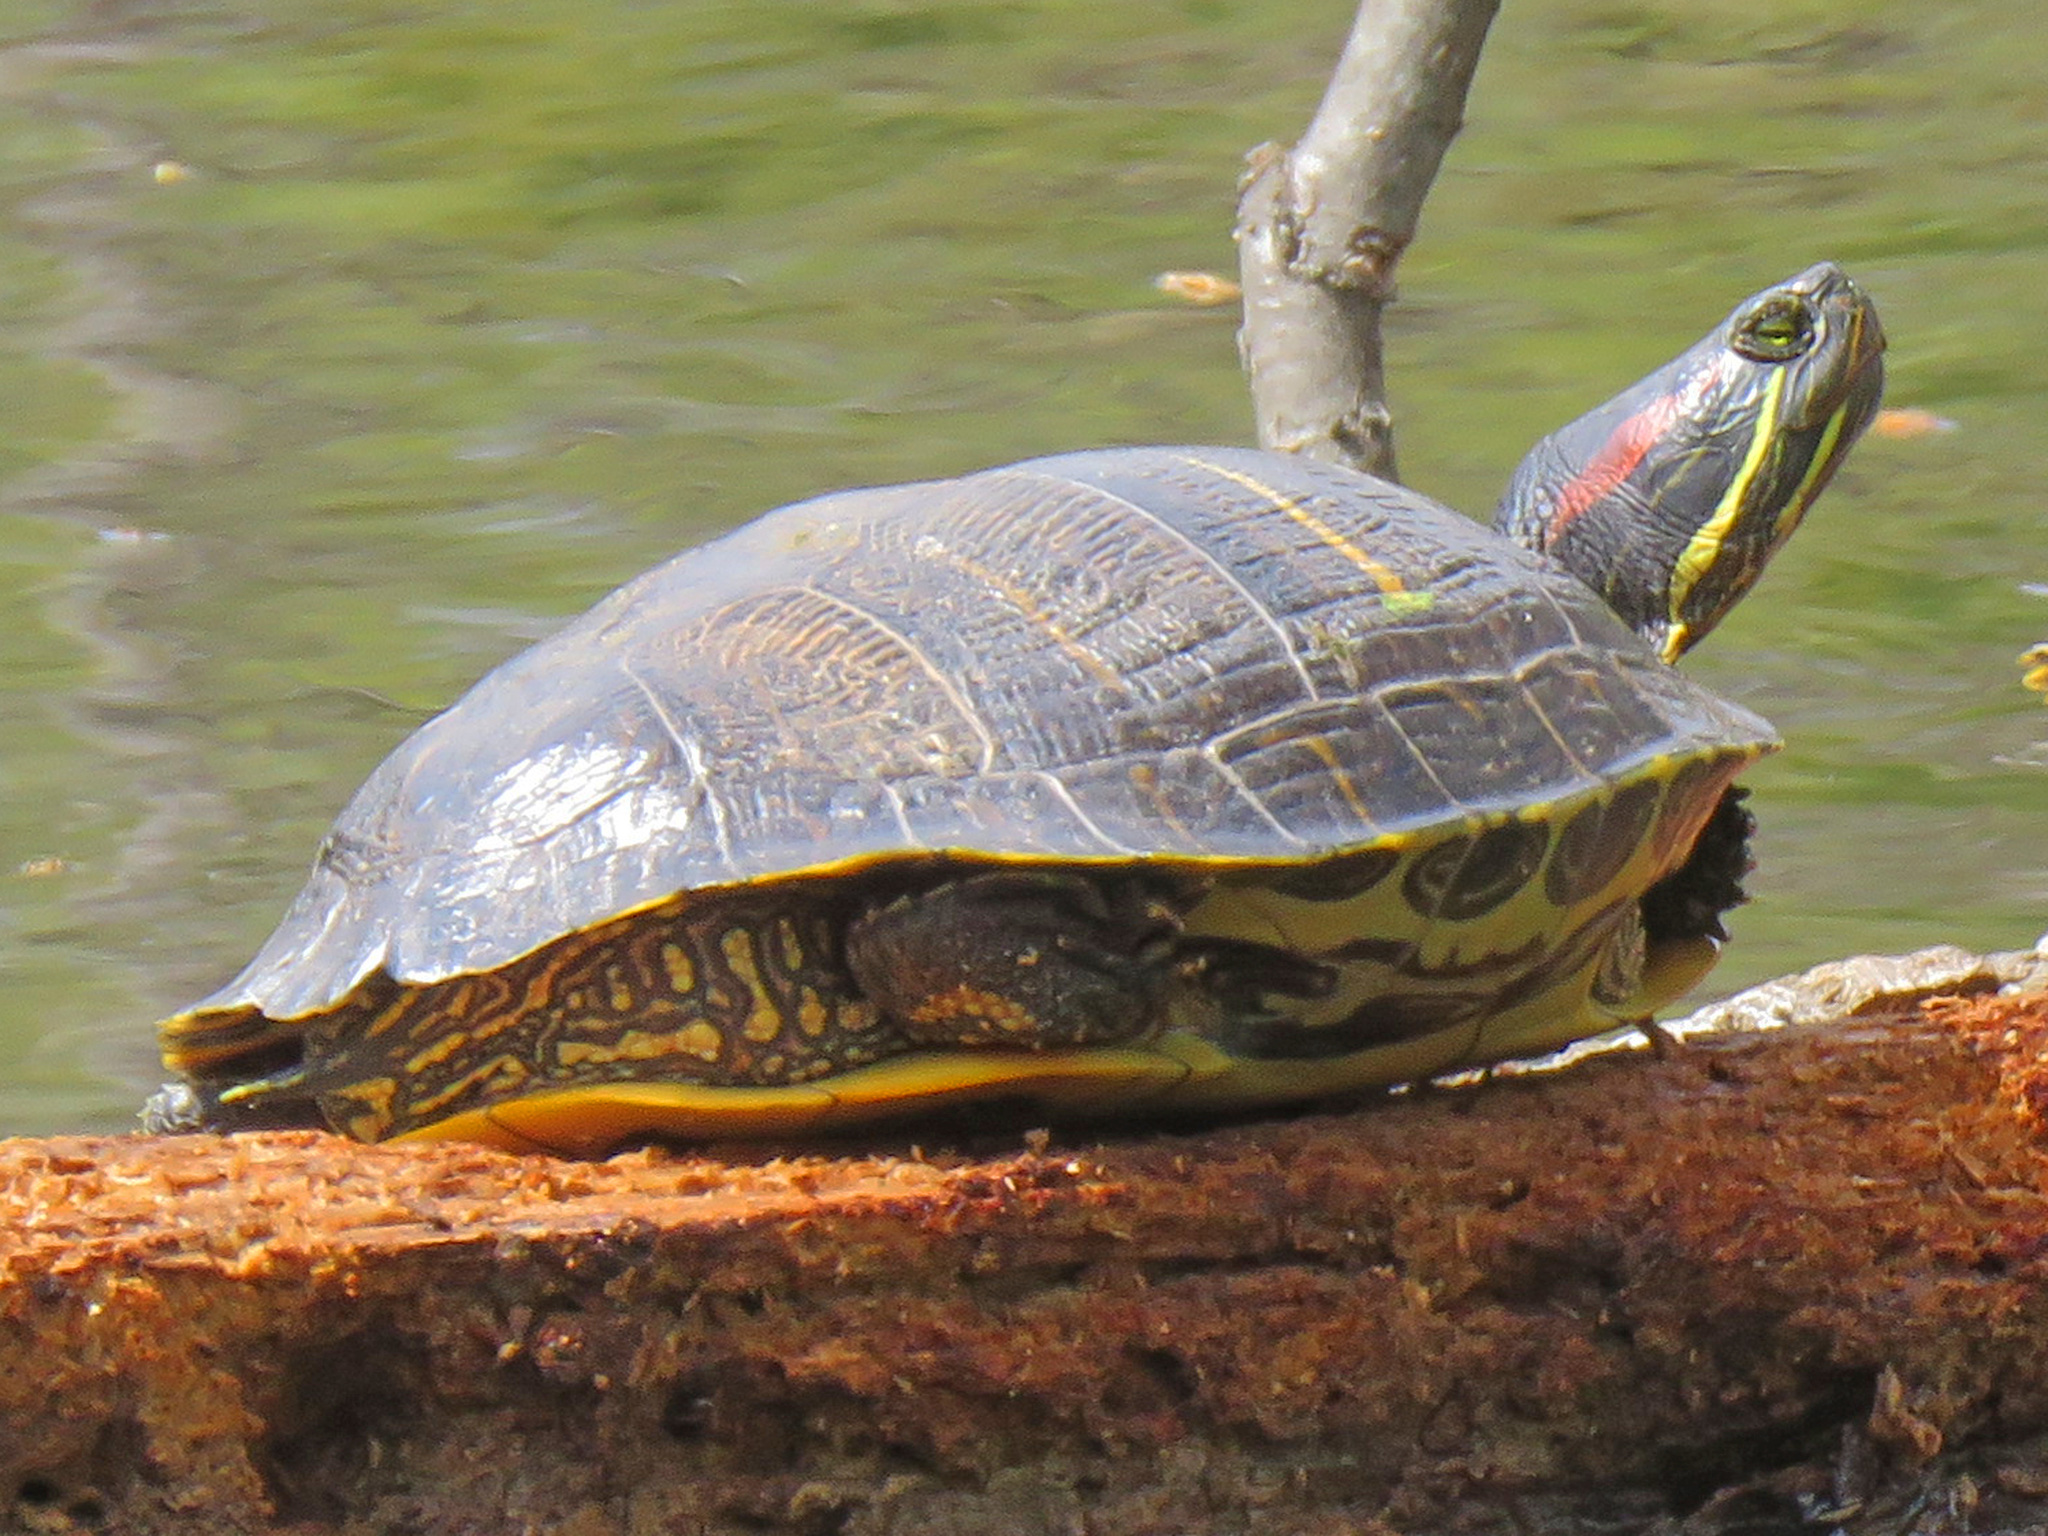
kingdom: Animalia
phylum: Chordata
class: Testudines
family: Emydidae
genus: Trachemys
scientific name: Trachemys scripta
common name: Slider
